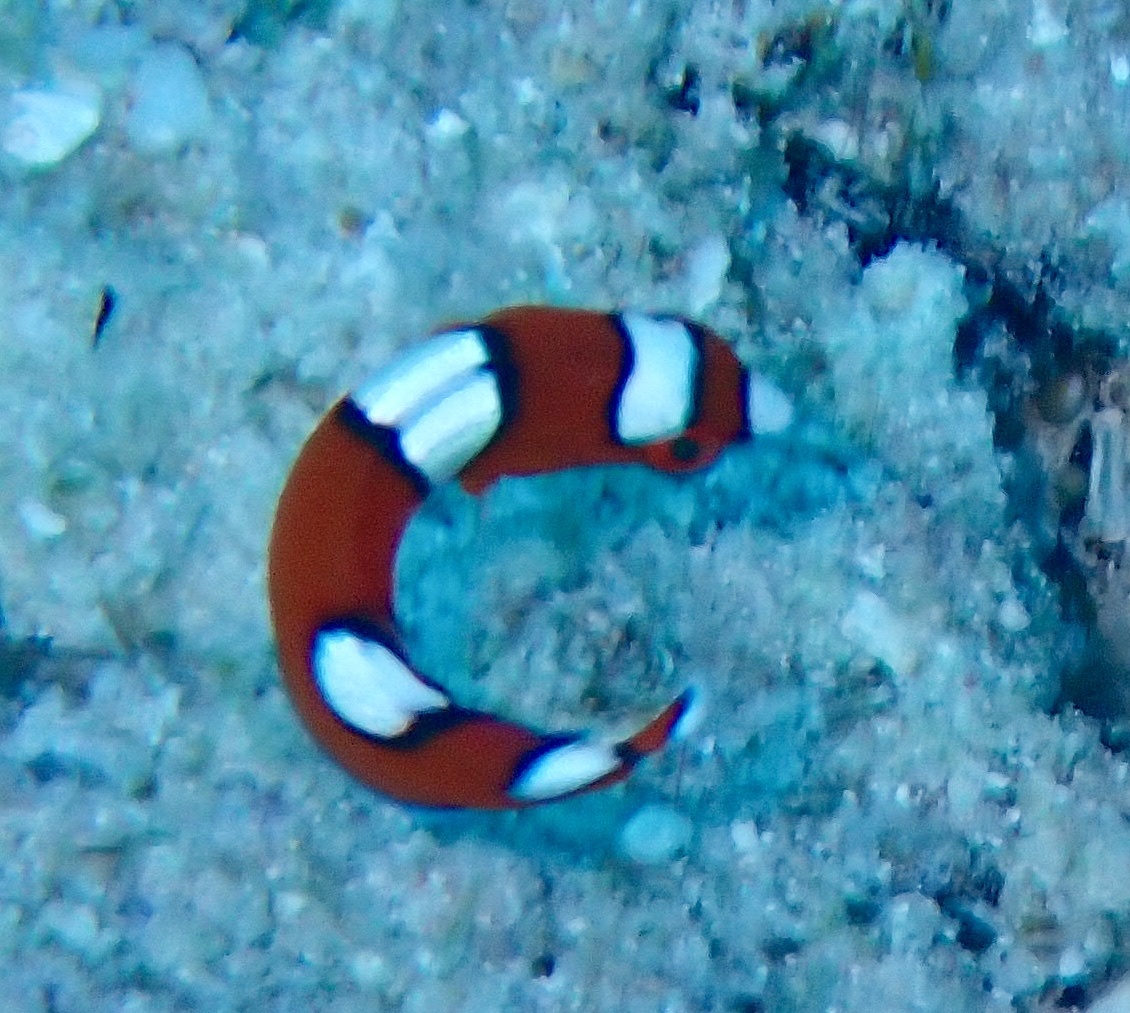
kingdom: Animalia
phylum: Chordata
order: Perciformes
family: Labridae
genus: Coris
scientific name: Coris gaimard
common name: Yellowtail coris
